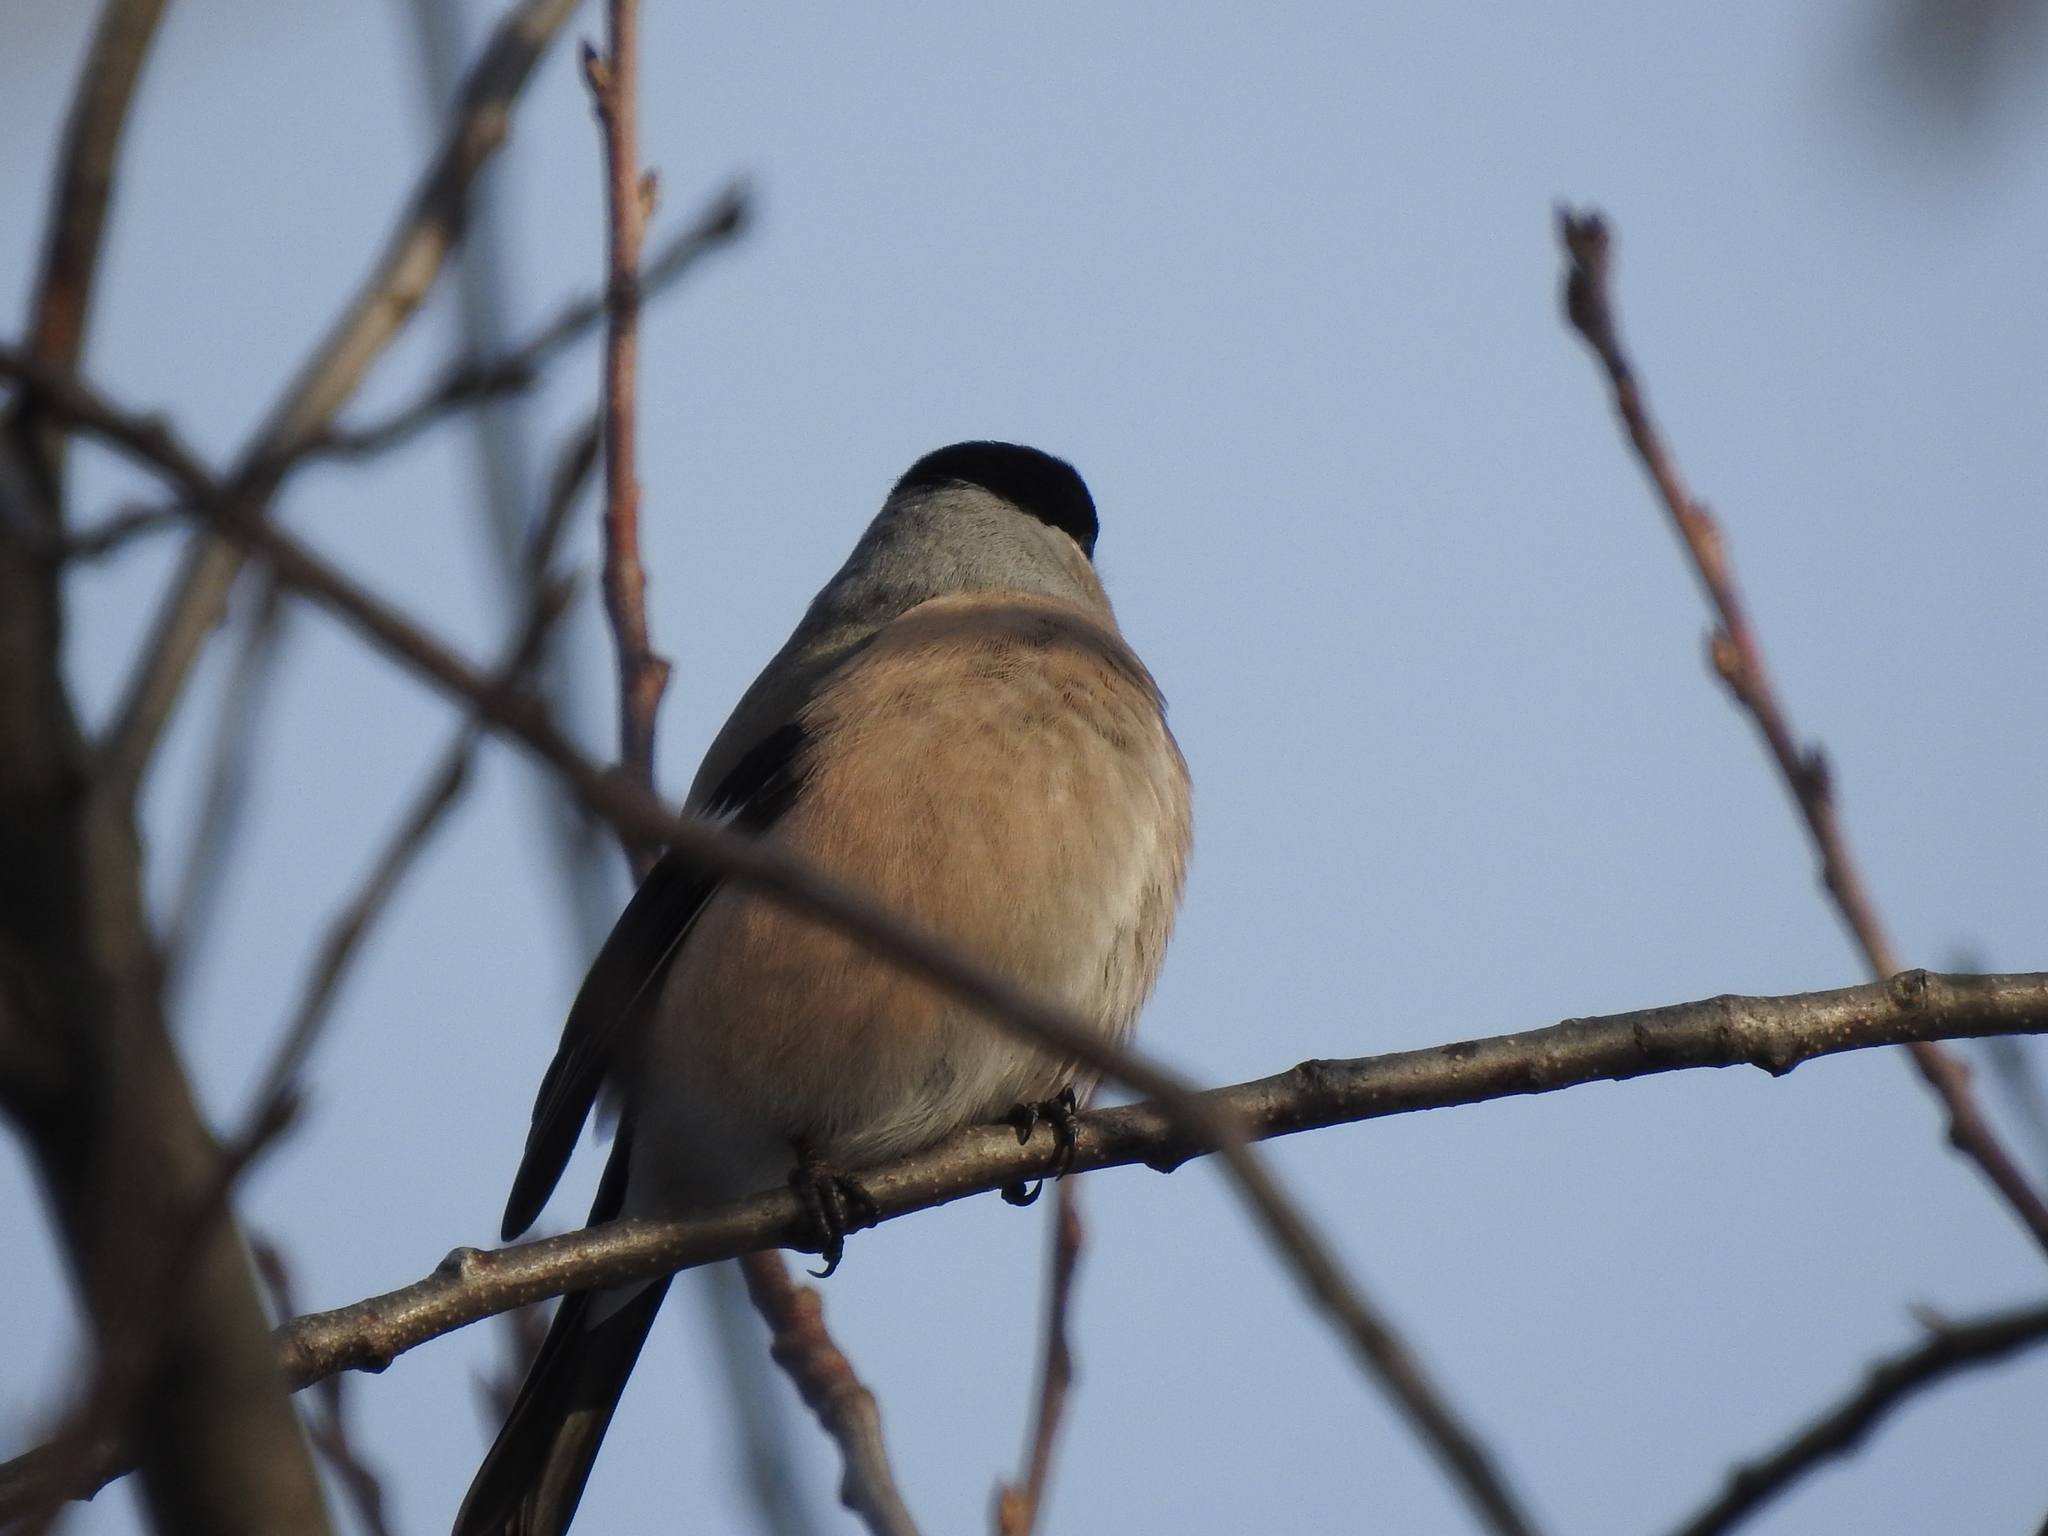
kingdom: Animalia
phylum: Chordata
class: Aves
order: Passeriformes
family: Fringillidae
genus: Pyrrhula
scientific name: Pyrrhula pyrrhula
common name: Eurasian bullfinch
